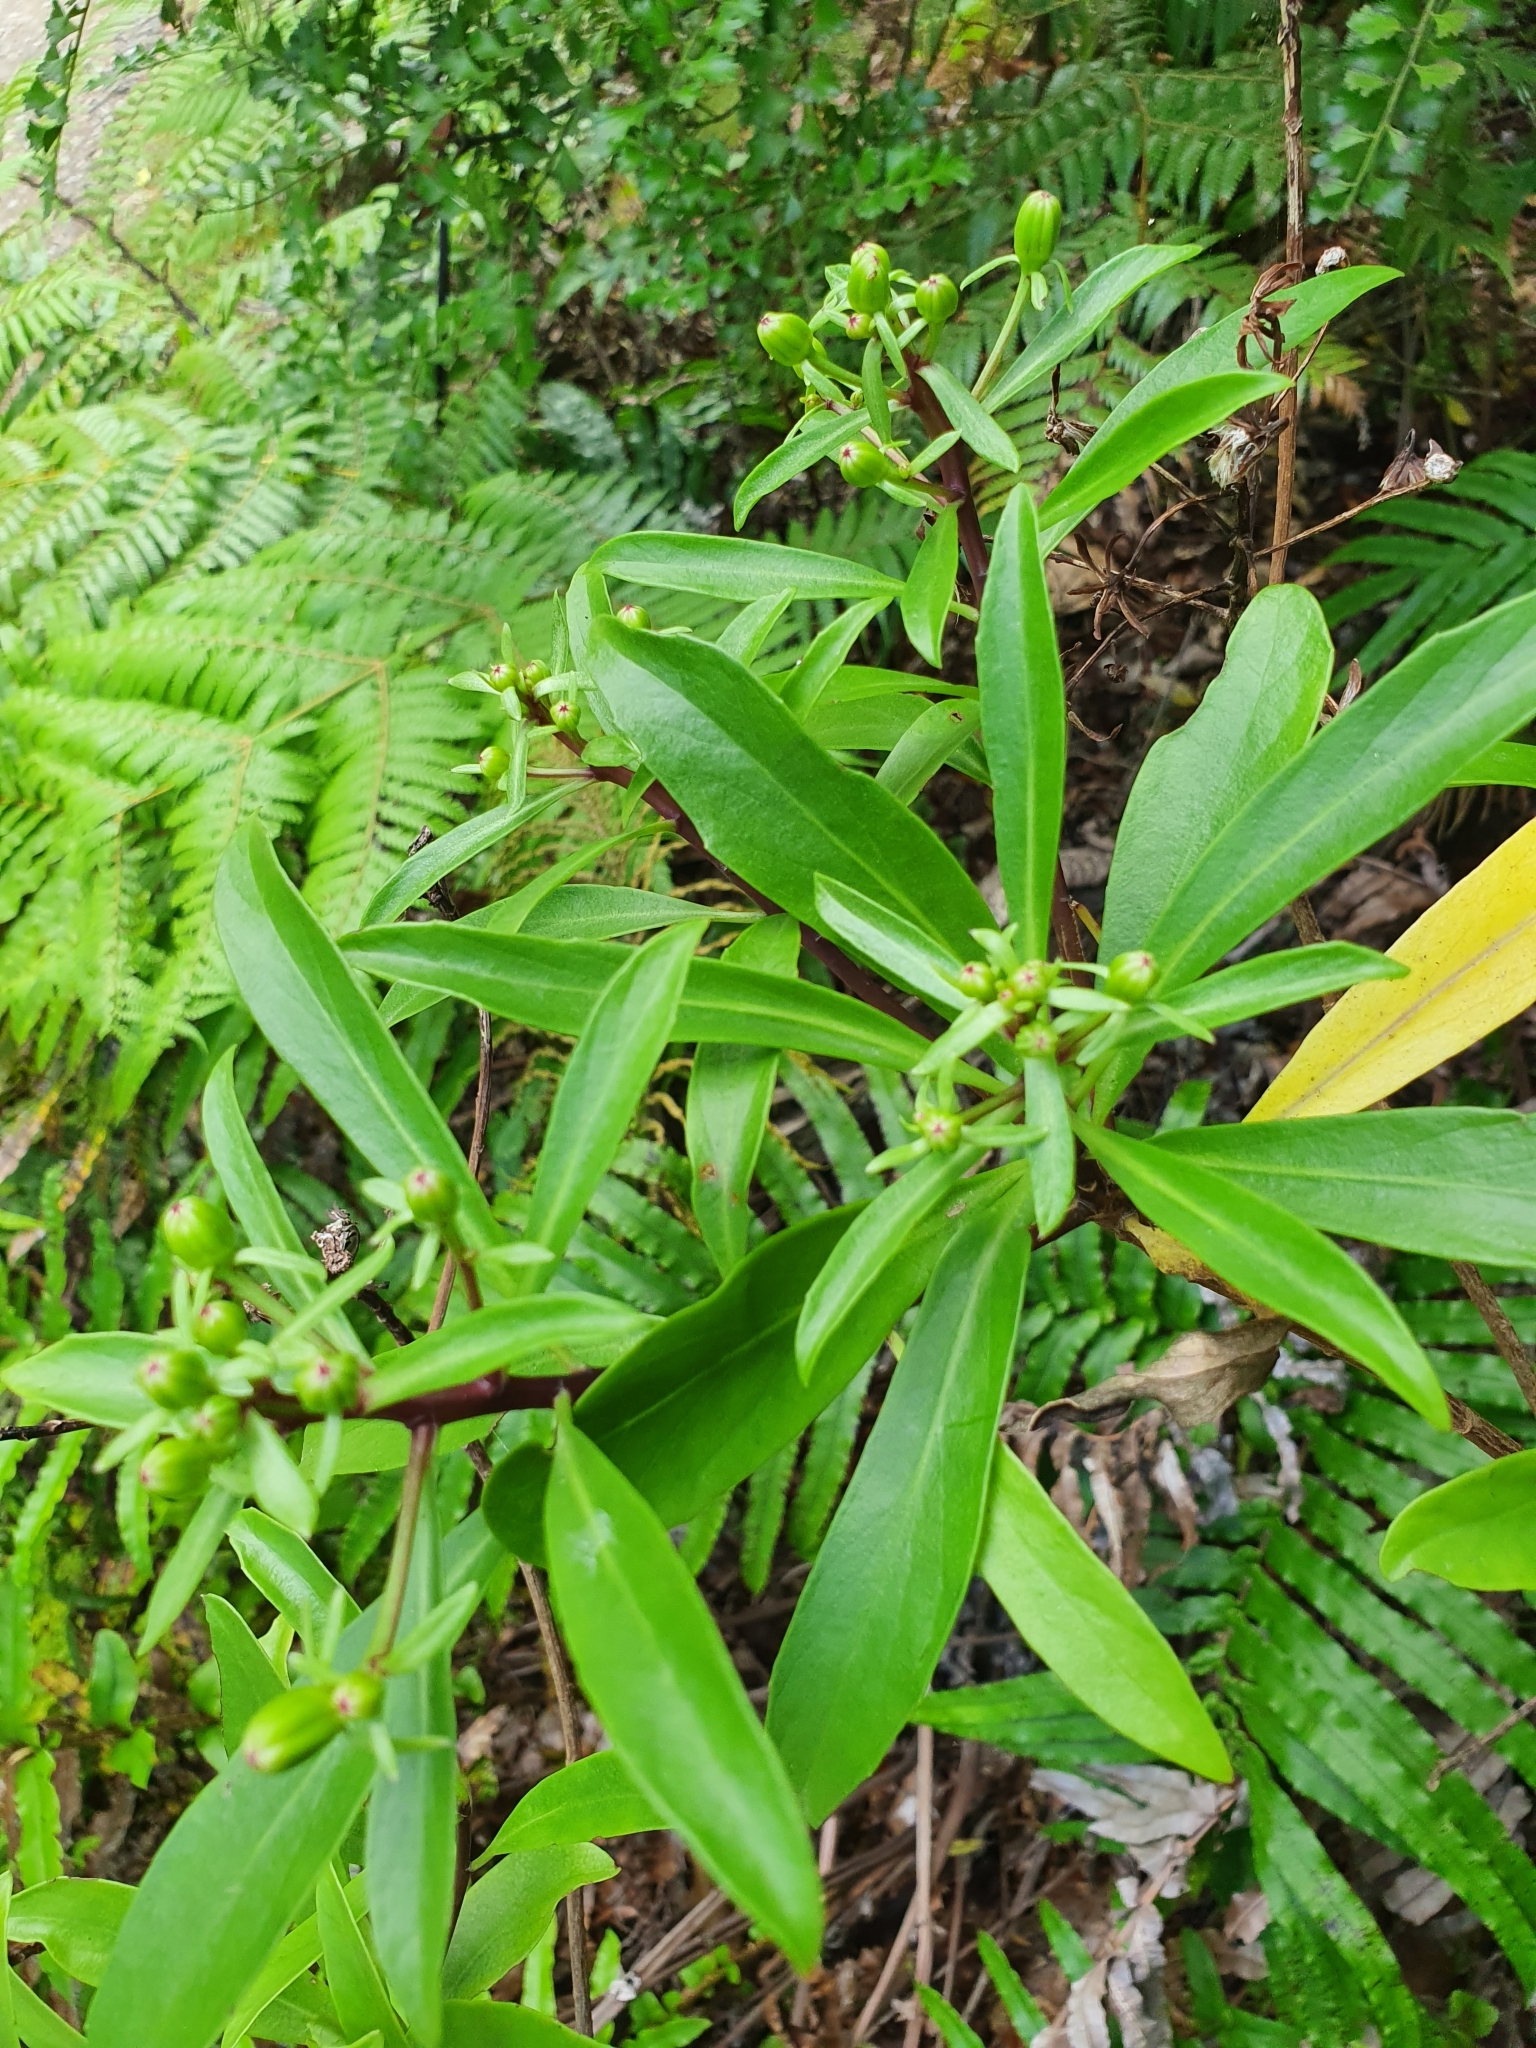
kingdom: Plantae
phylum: Tracheophyta
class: Magnoliopsida
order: Asterales
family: Asteraceae
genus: Brachyglottis
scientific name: Brachyglottis kirkii
